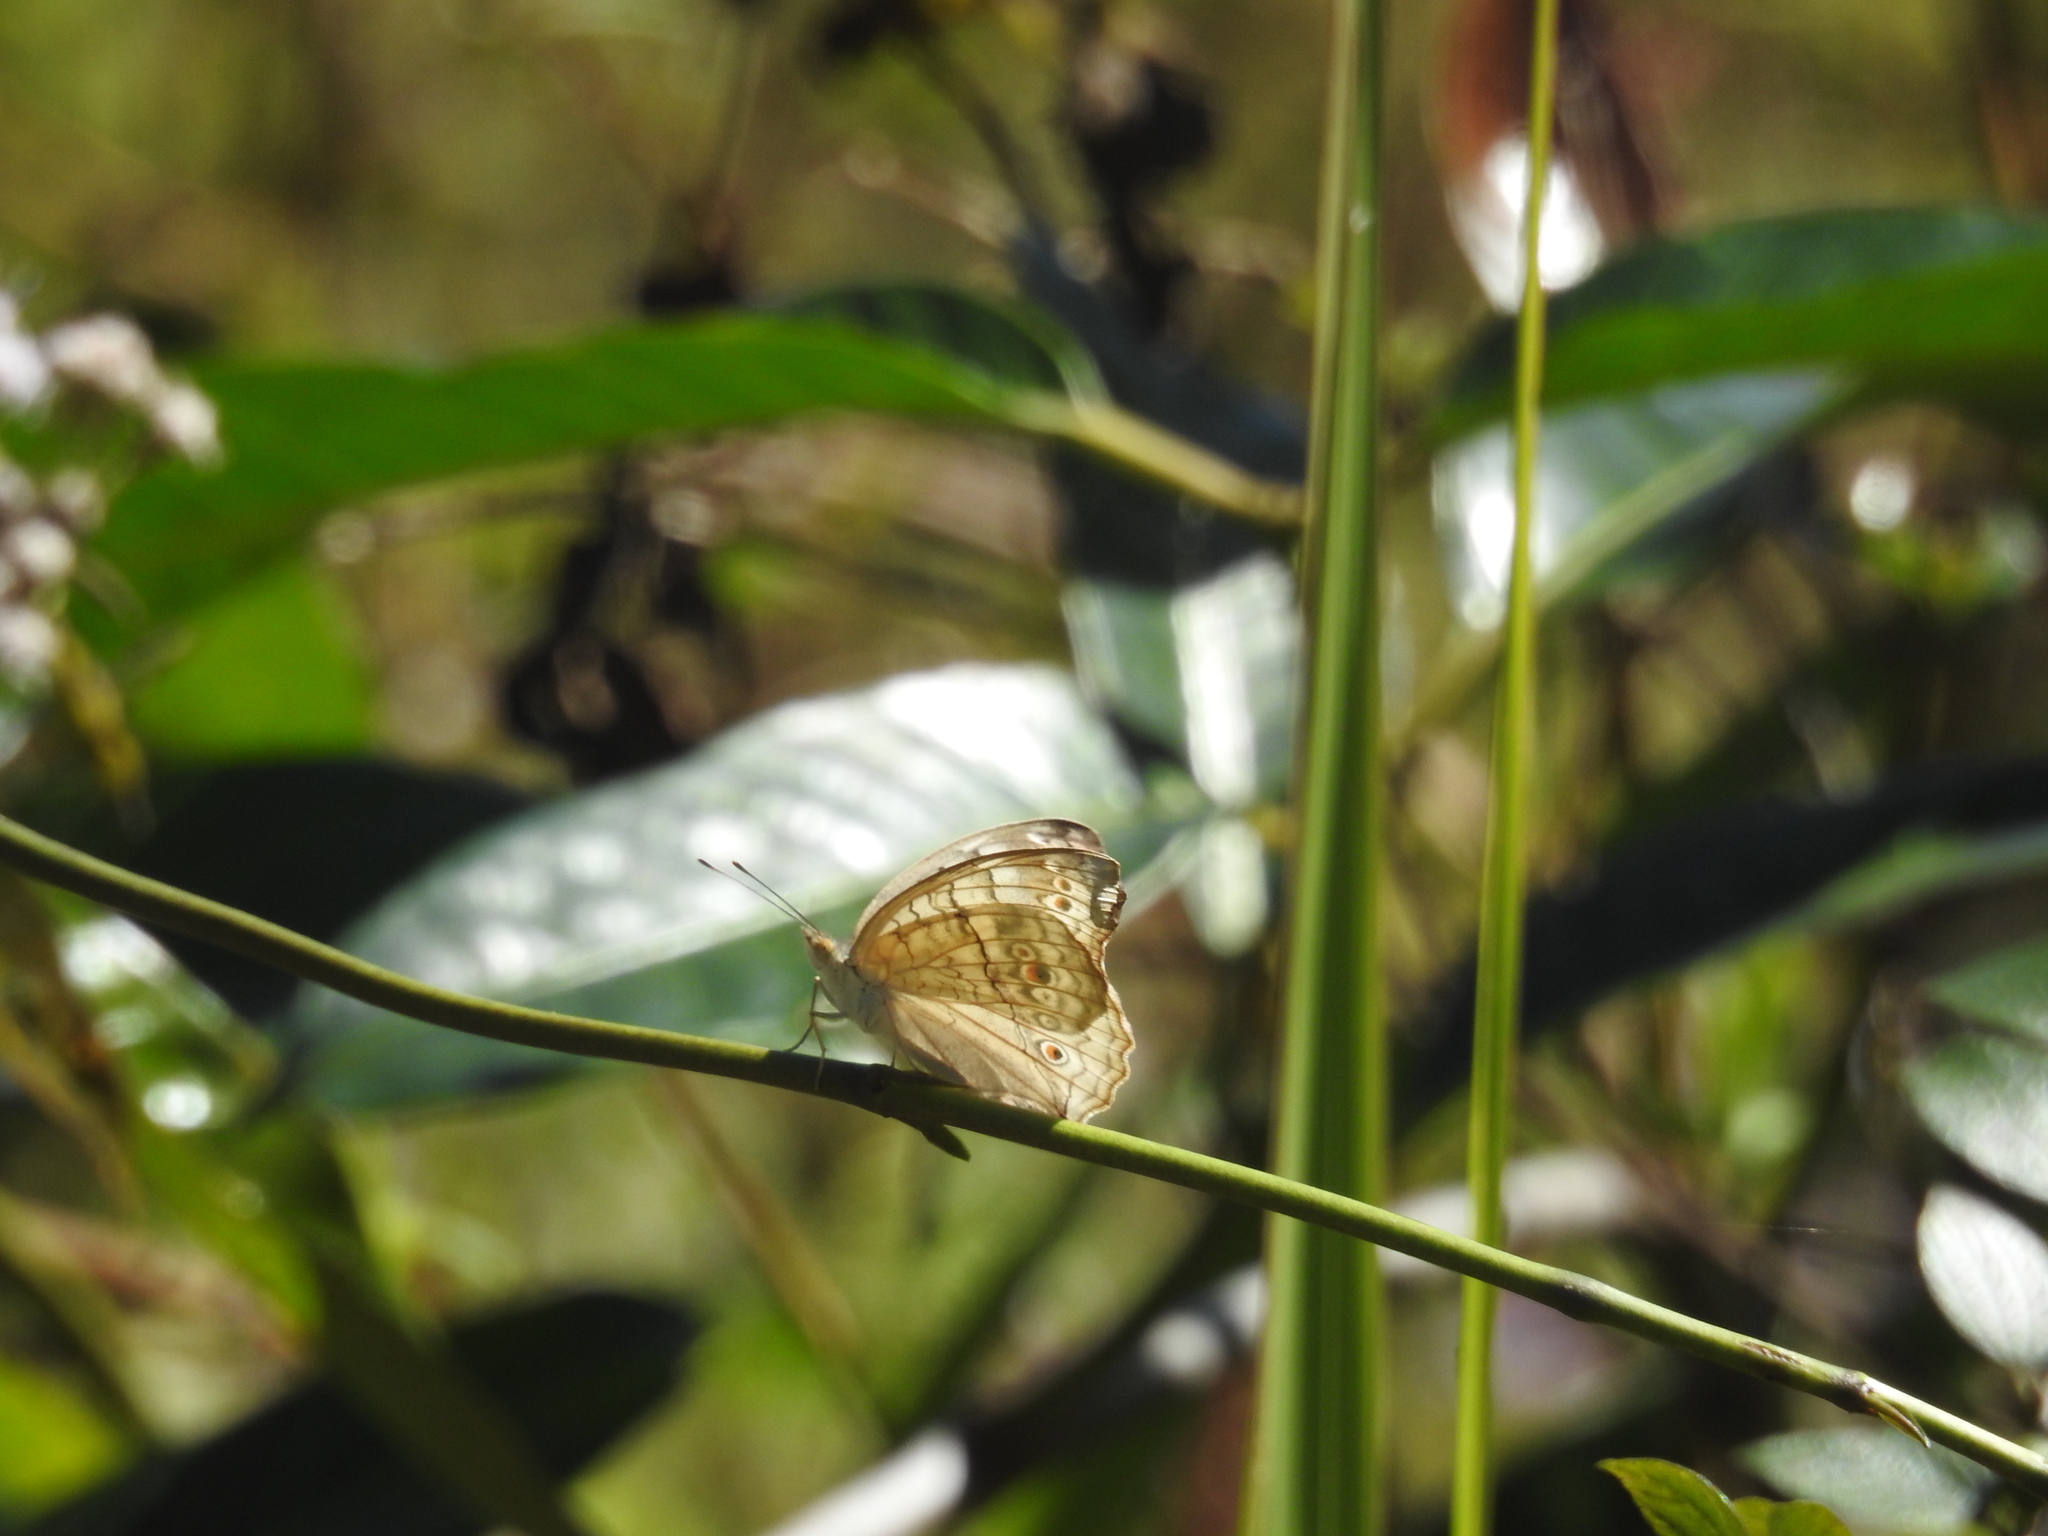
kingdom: Animalia
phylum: Arthropoda
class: Insecta
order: Lepidoptera
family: Nymphalidae
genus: Junonia
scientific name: Junonia atlites
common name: Grey pansy
